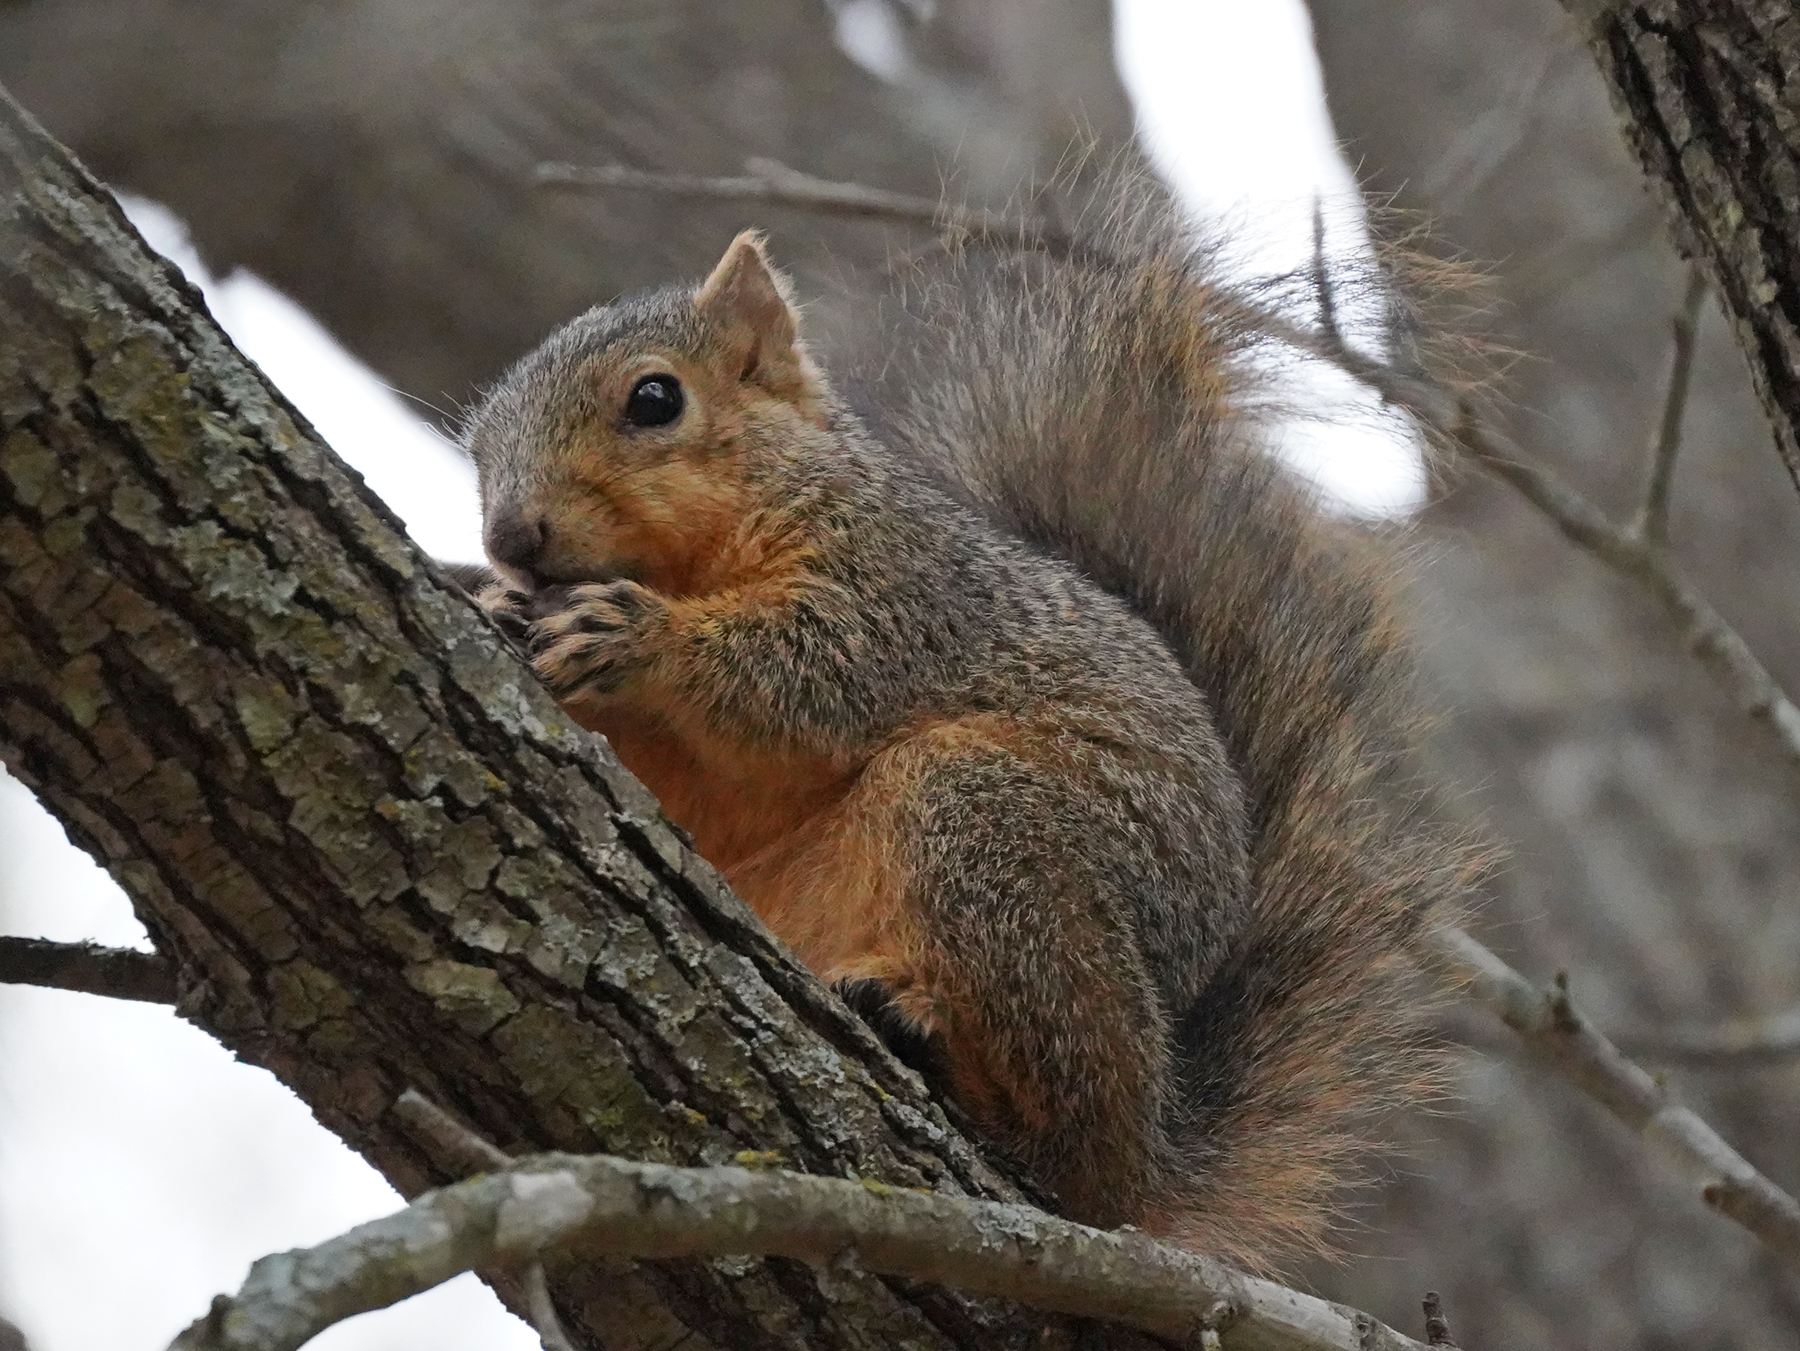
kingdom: Animalia
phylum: Chordata
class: Mammalia
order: Rodentia
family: Sciuridae
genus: Sciurus
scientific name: Sciurus niger
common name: Fox squirrel
